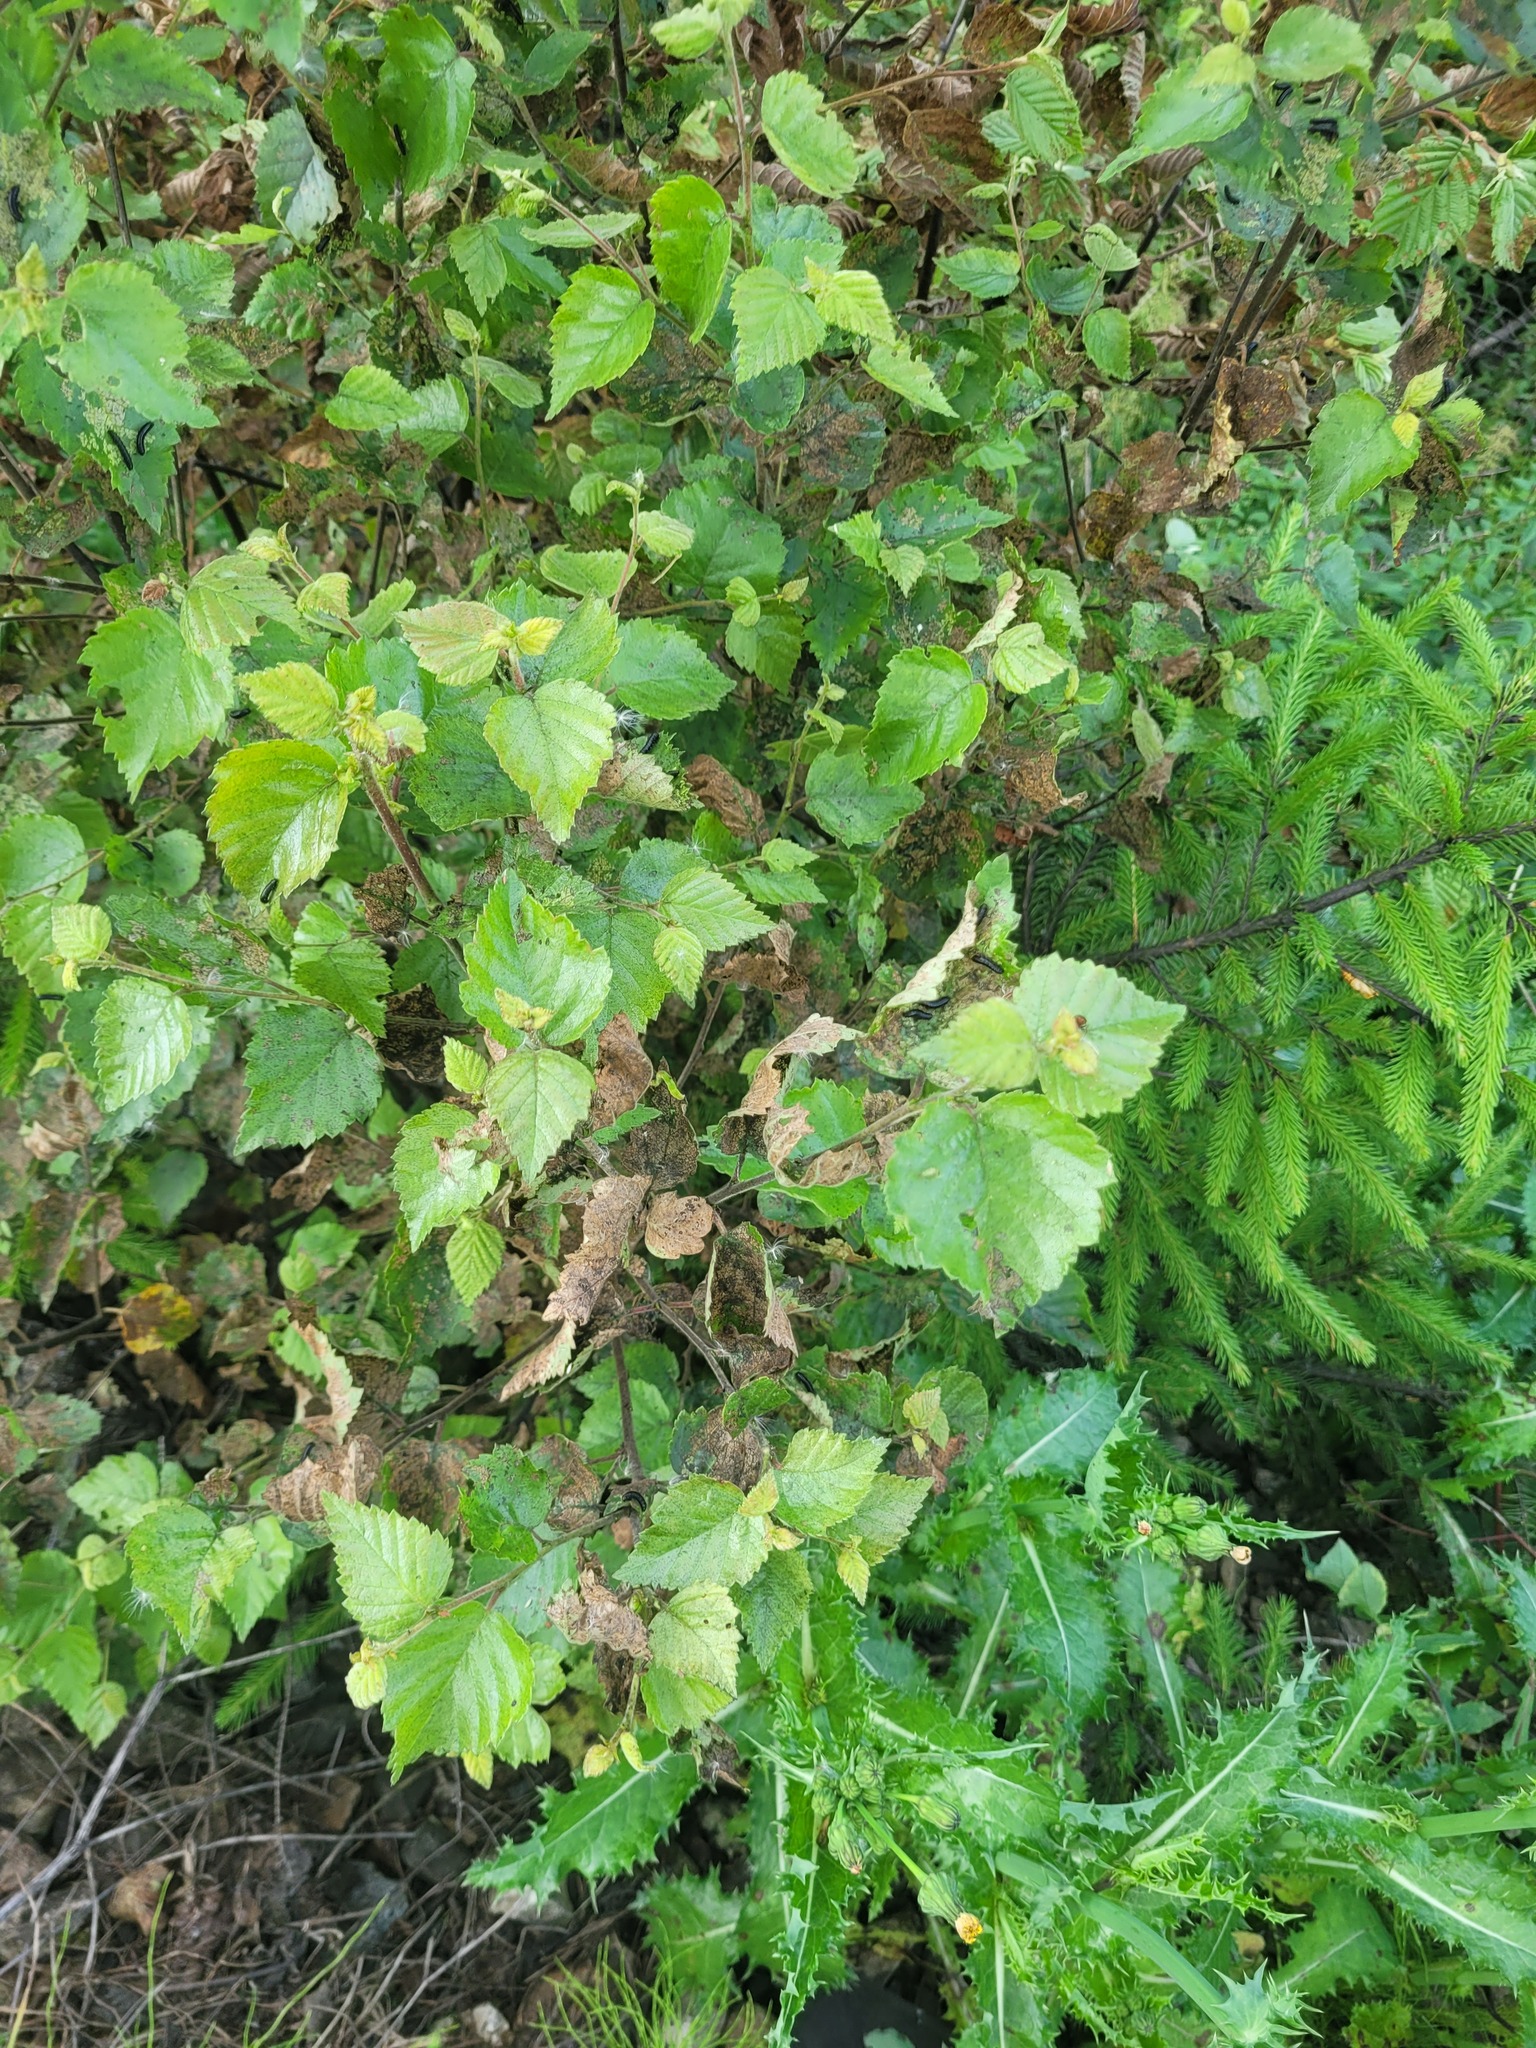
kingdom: Plantae
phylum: Tracheophyta
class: Magnoliopsida
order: Fagales
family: Betulaceae
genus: Betula
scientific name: Betula pubescens
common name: Downy birch
